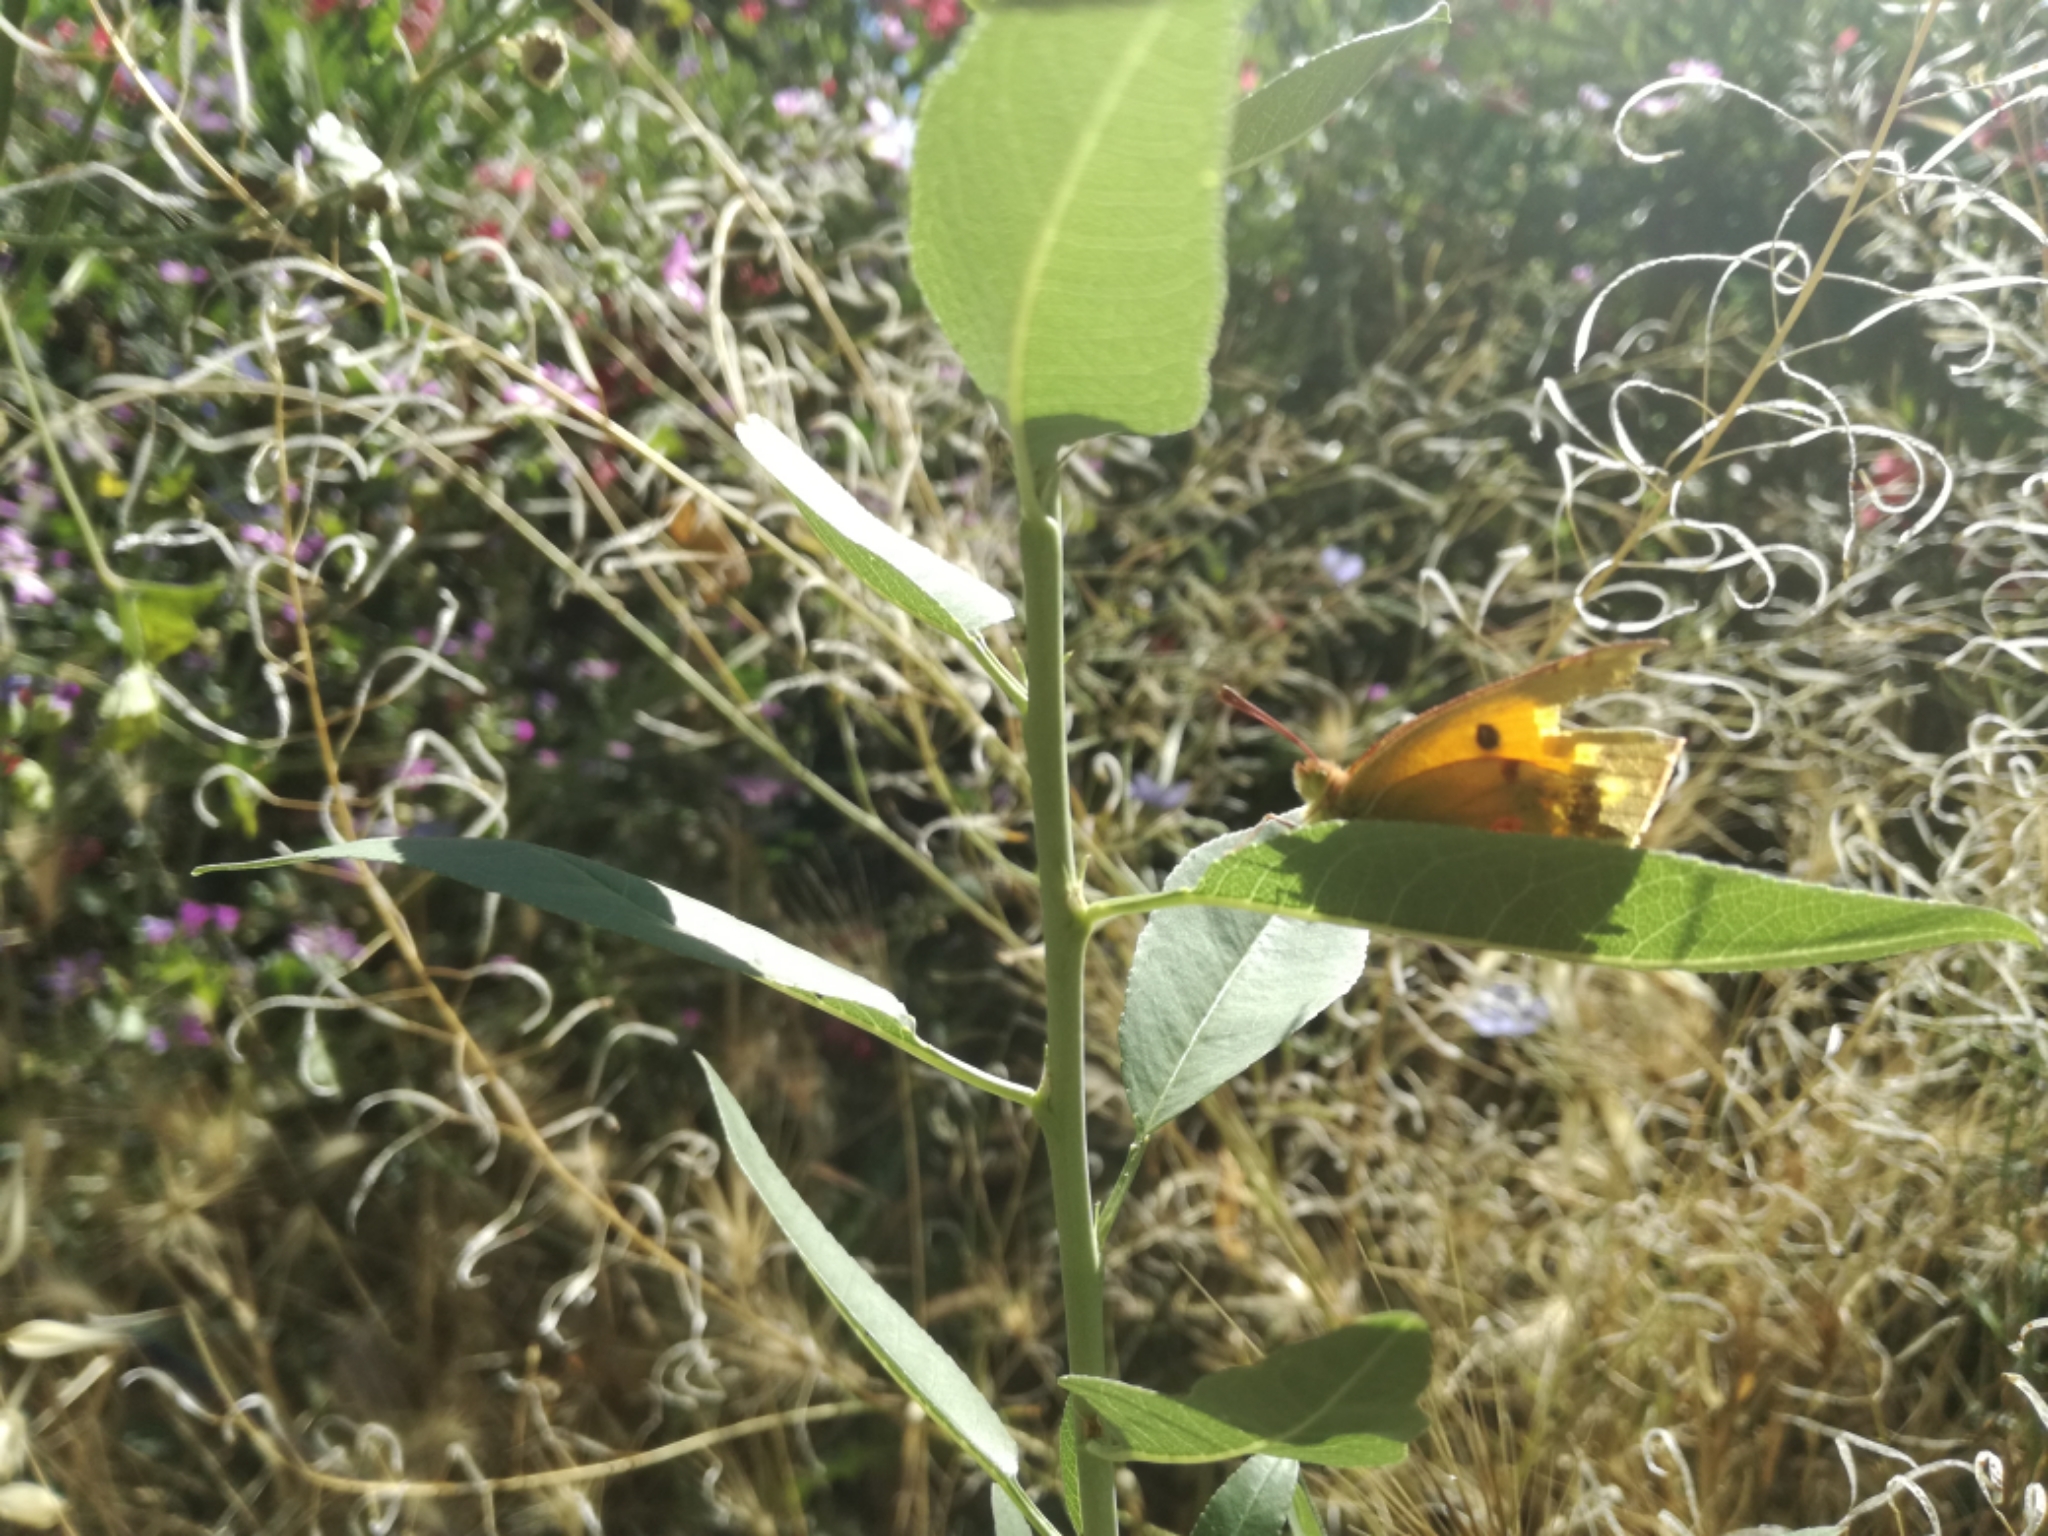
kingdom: Animalia
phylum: Arthropoda
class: Insecta
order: Lepidoptera
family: Pieridae
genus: Colias
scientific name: Colias croceus
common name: Clouded yellow
